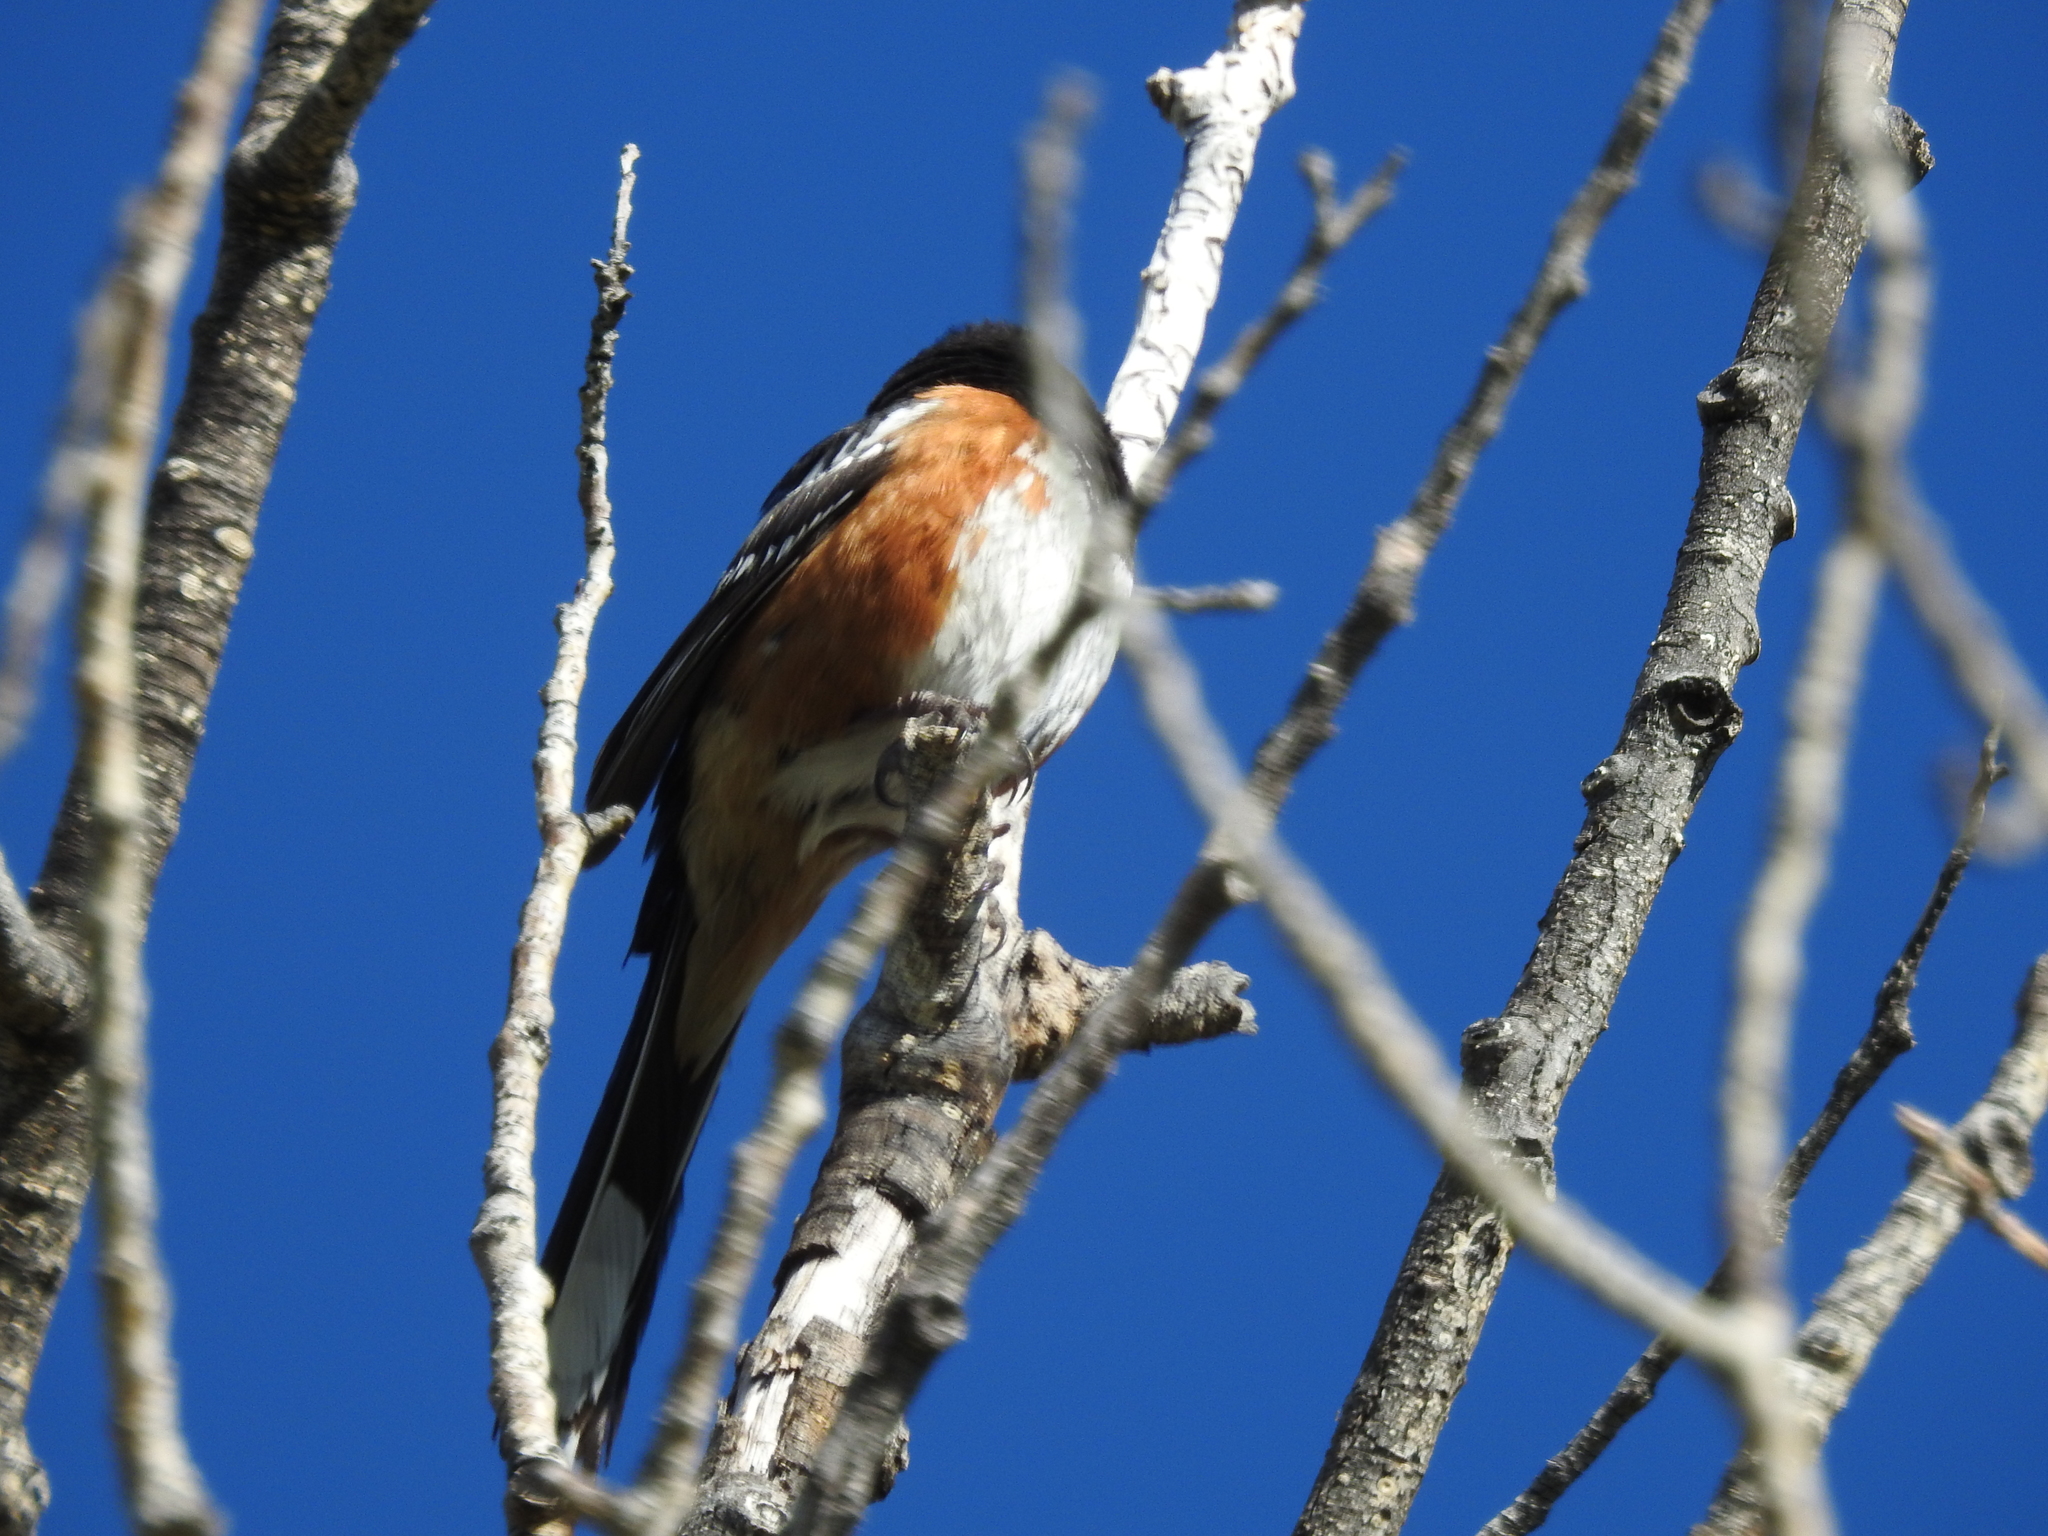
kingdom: Animalia
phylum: Chordata
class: Aves
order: Passeriformes
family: Passerellidae
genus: Pipilo
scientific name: Pipilo maculatus
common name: Spotted towhee
